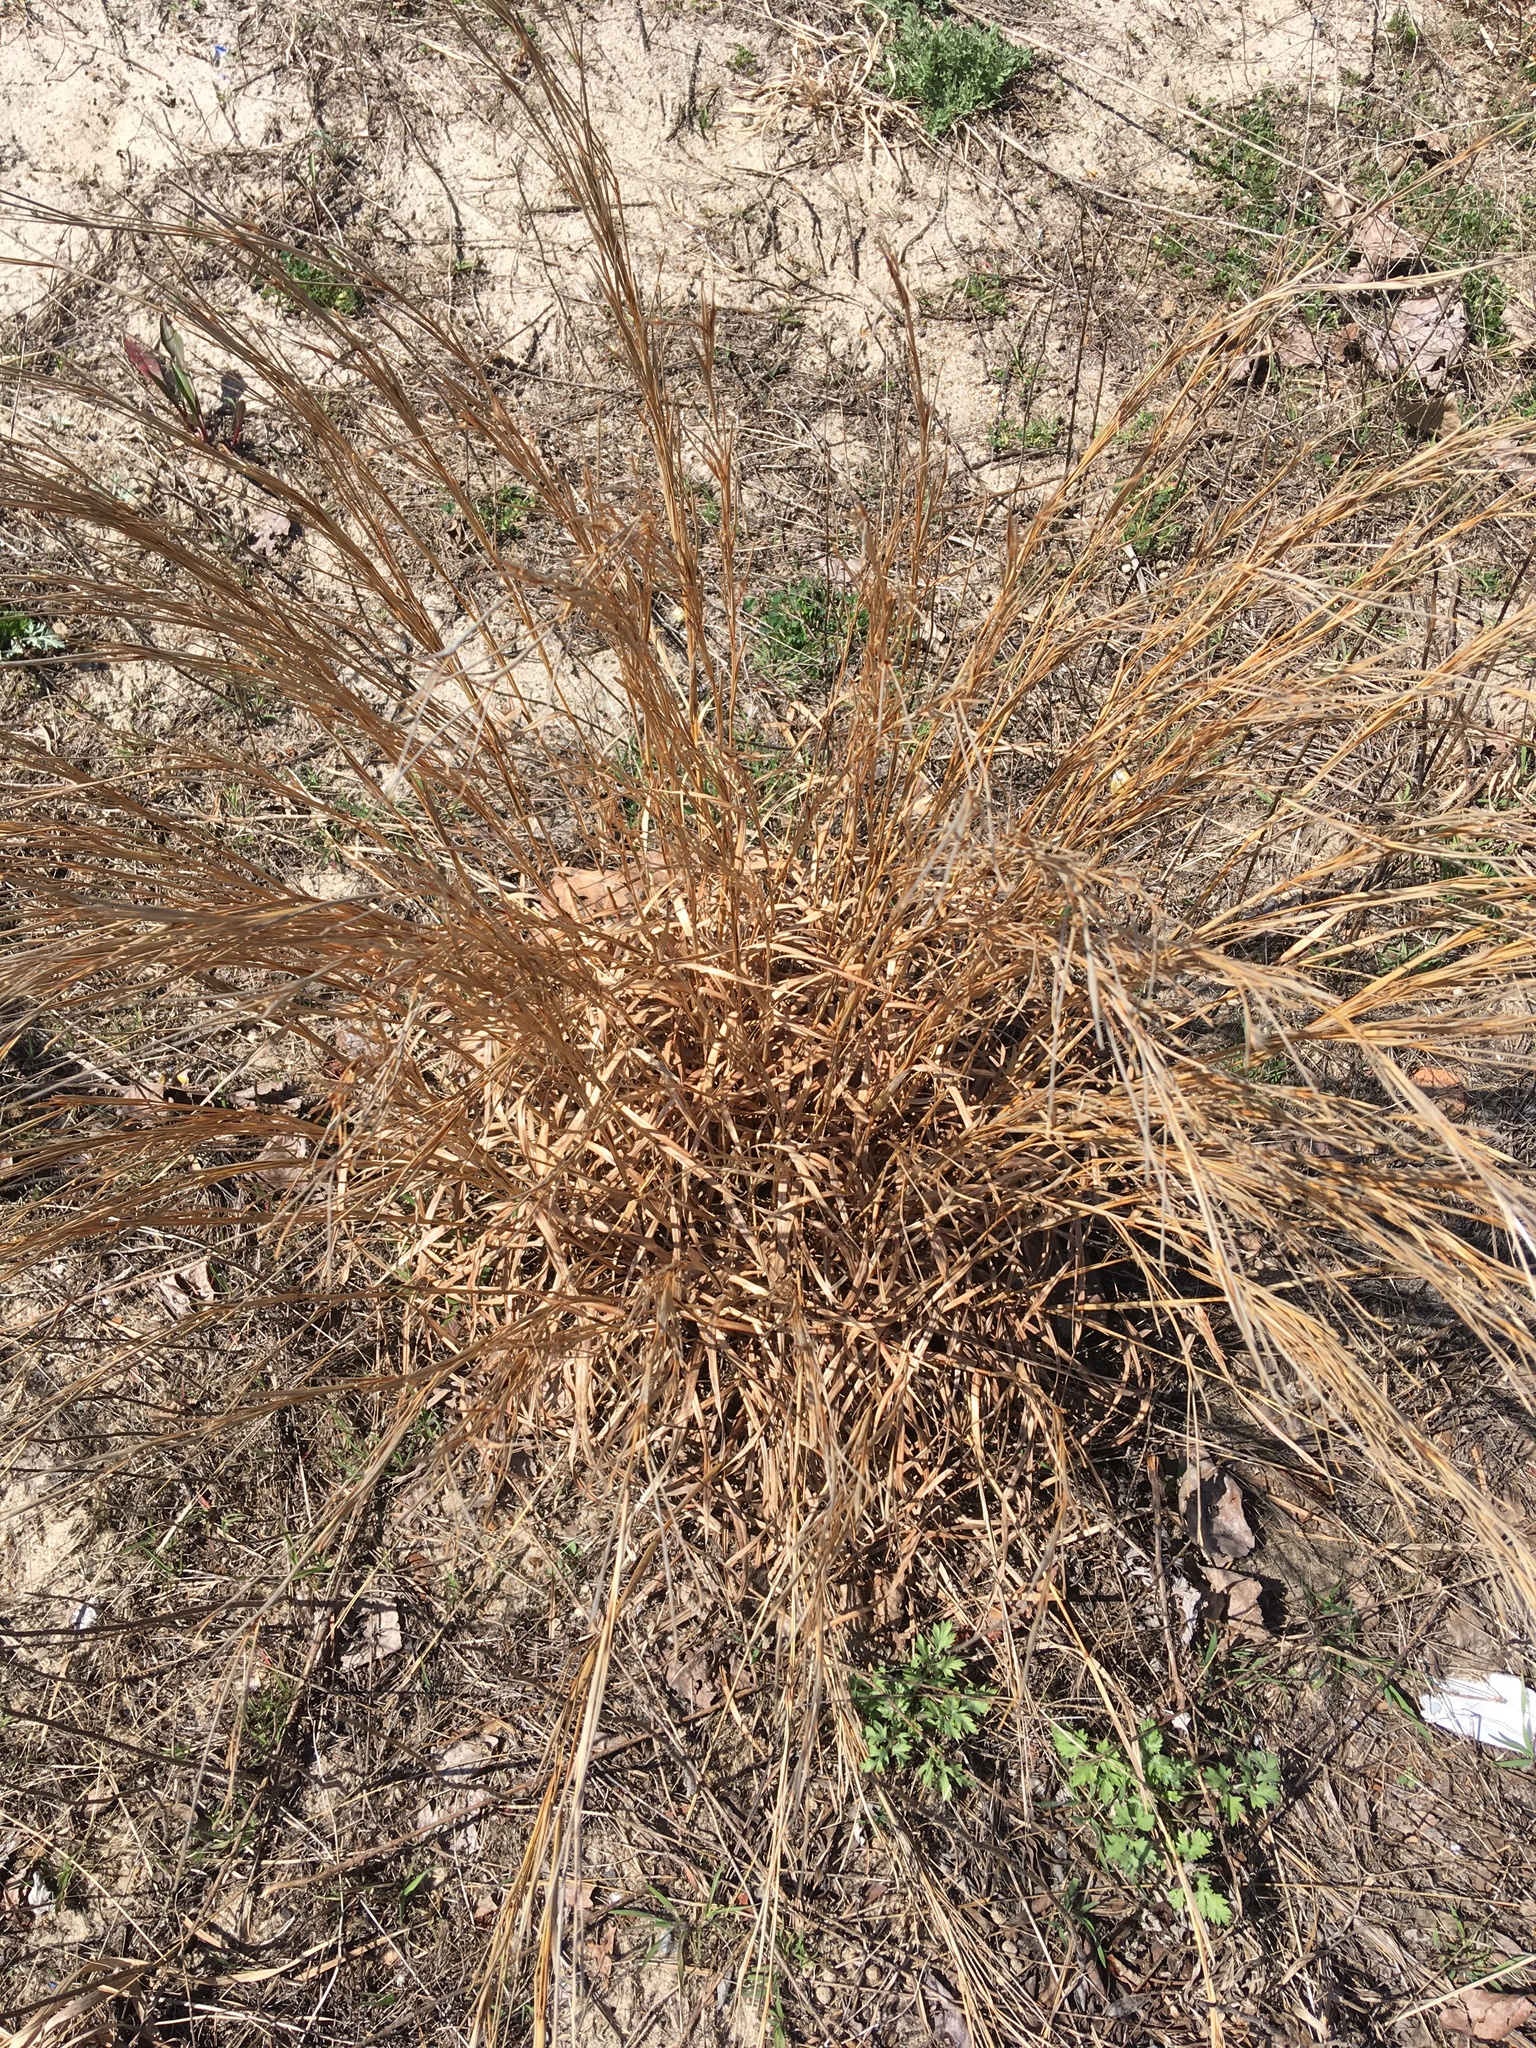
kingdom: Plantae
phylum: Tracheophyta
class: Liliopsida
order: Poales
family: Poaceae
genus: Schizachyrium
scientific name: Schizachyrium scoparium
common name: Little bluestem
